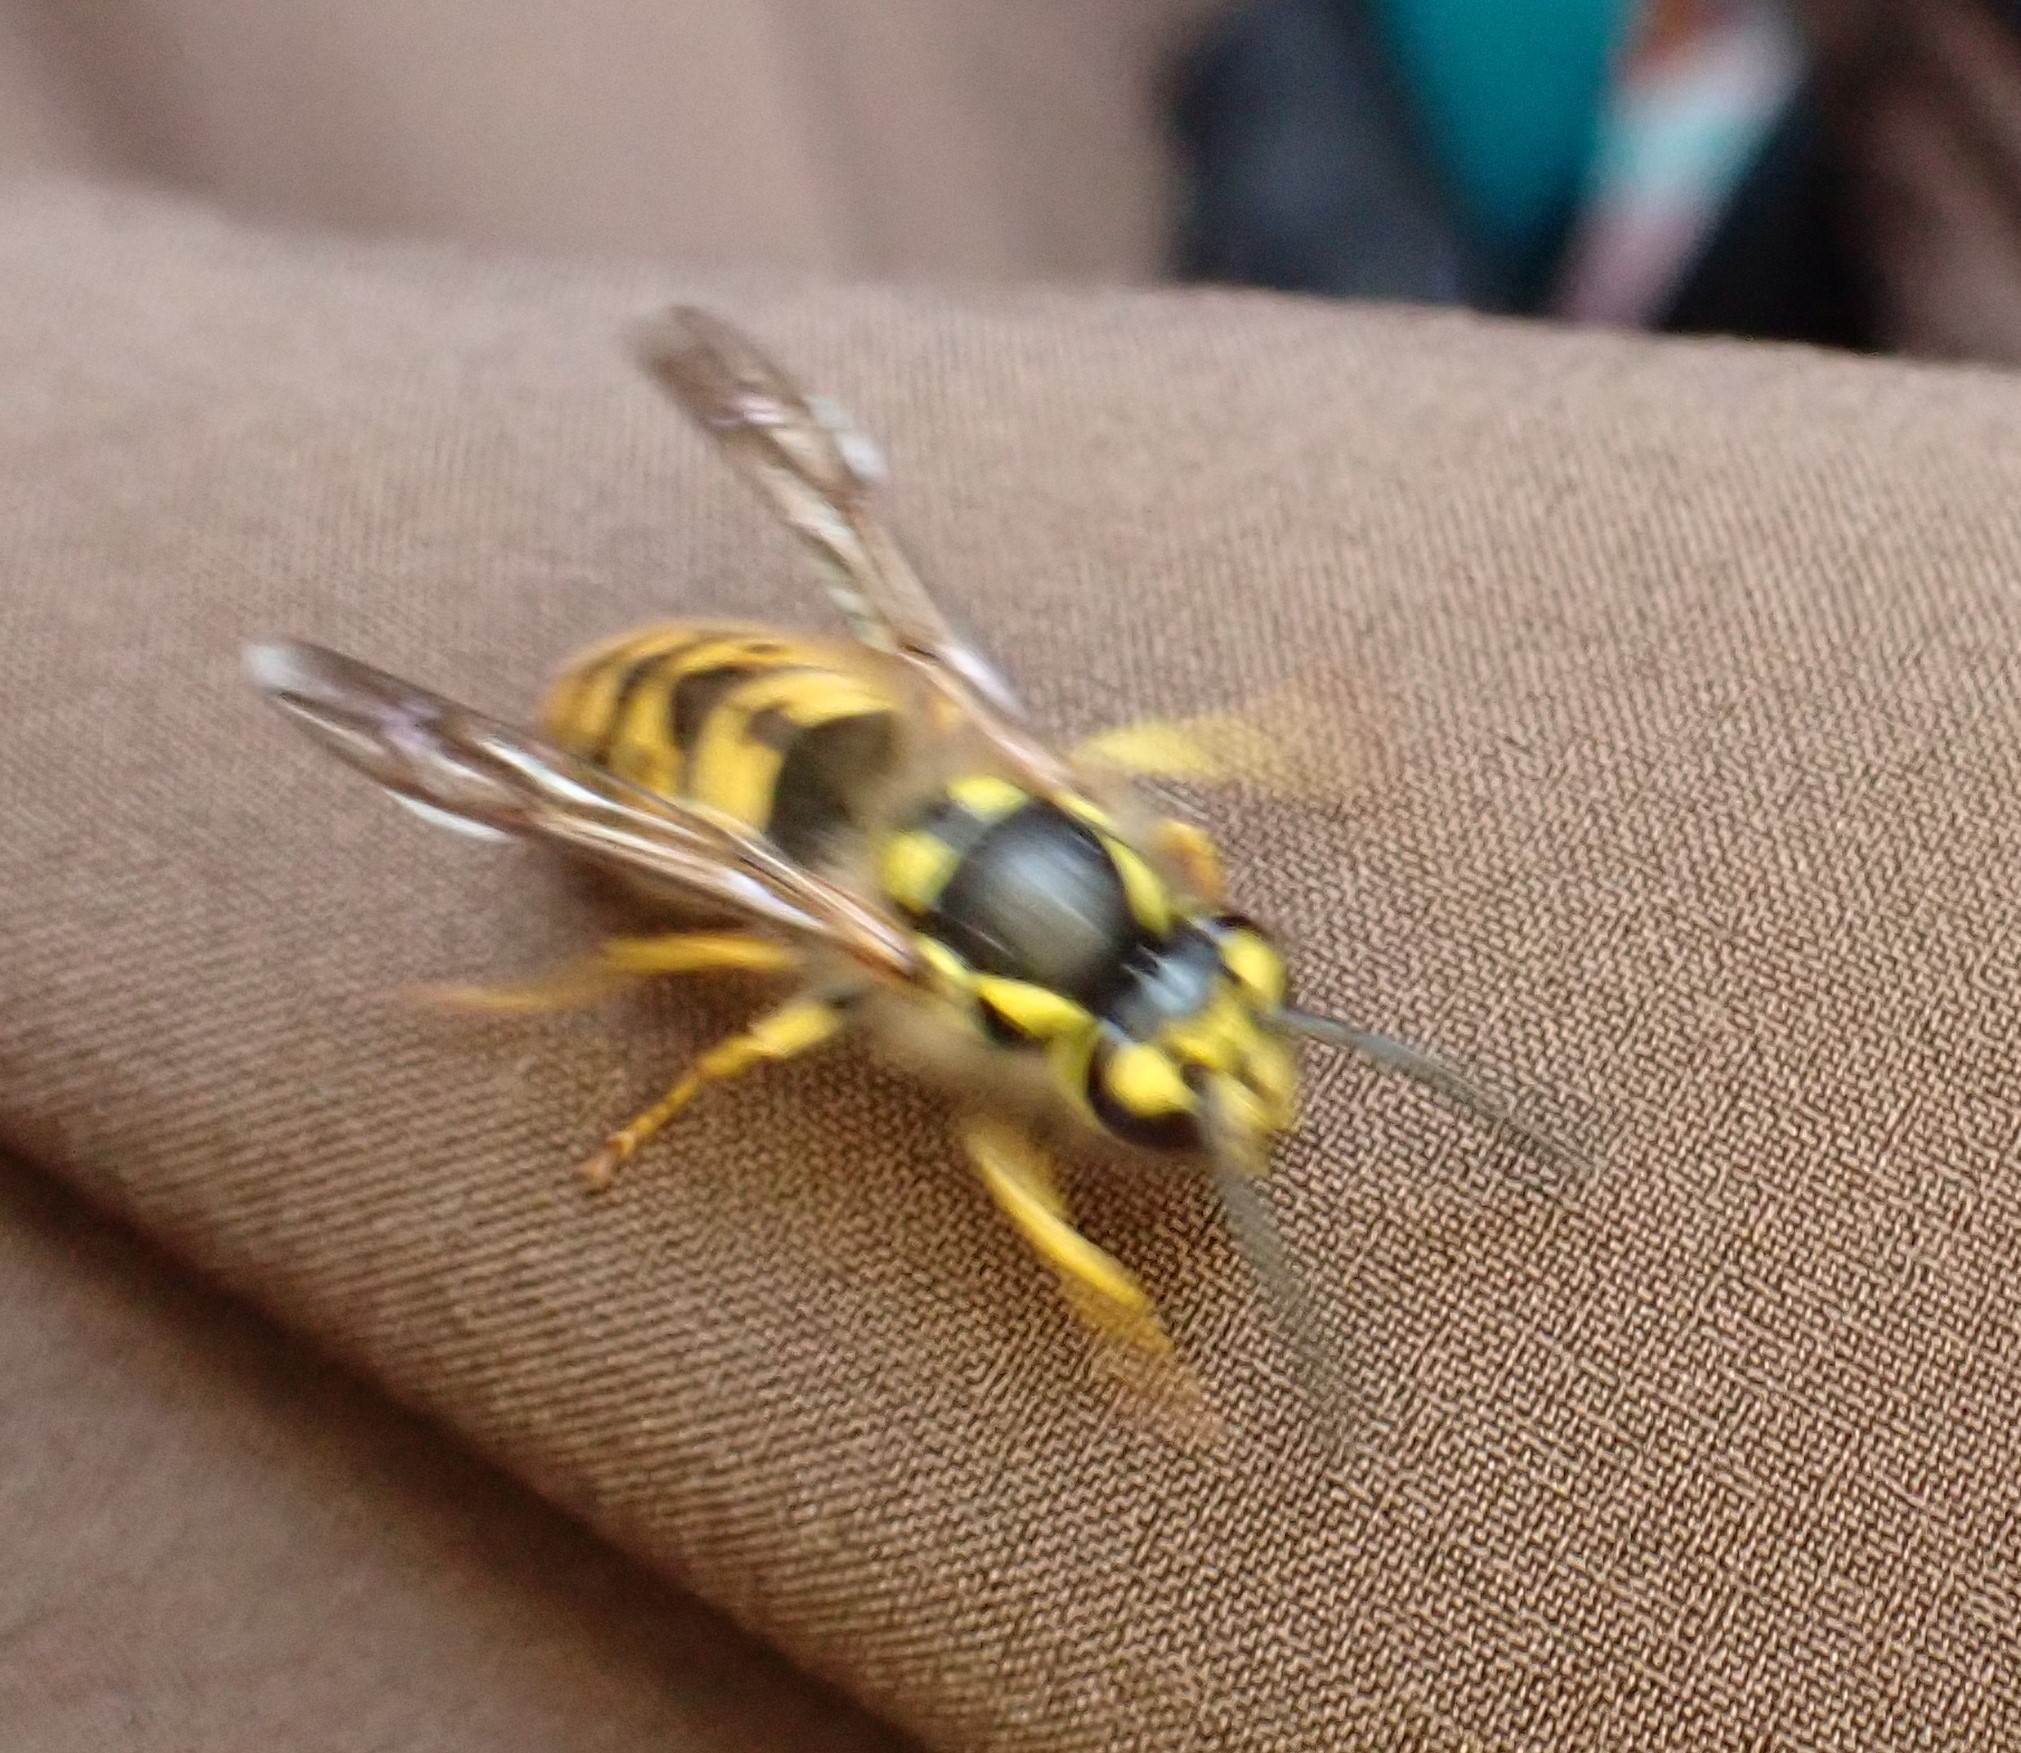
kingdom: Animalia
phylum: Arthropoda
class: Insecta
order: Hymenoptera
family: Vespidae
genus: Vespula
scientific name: Vespula germanica
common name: German wasp
